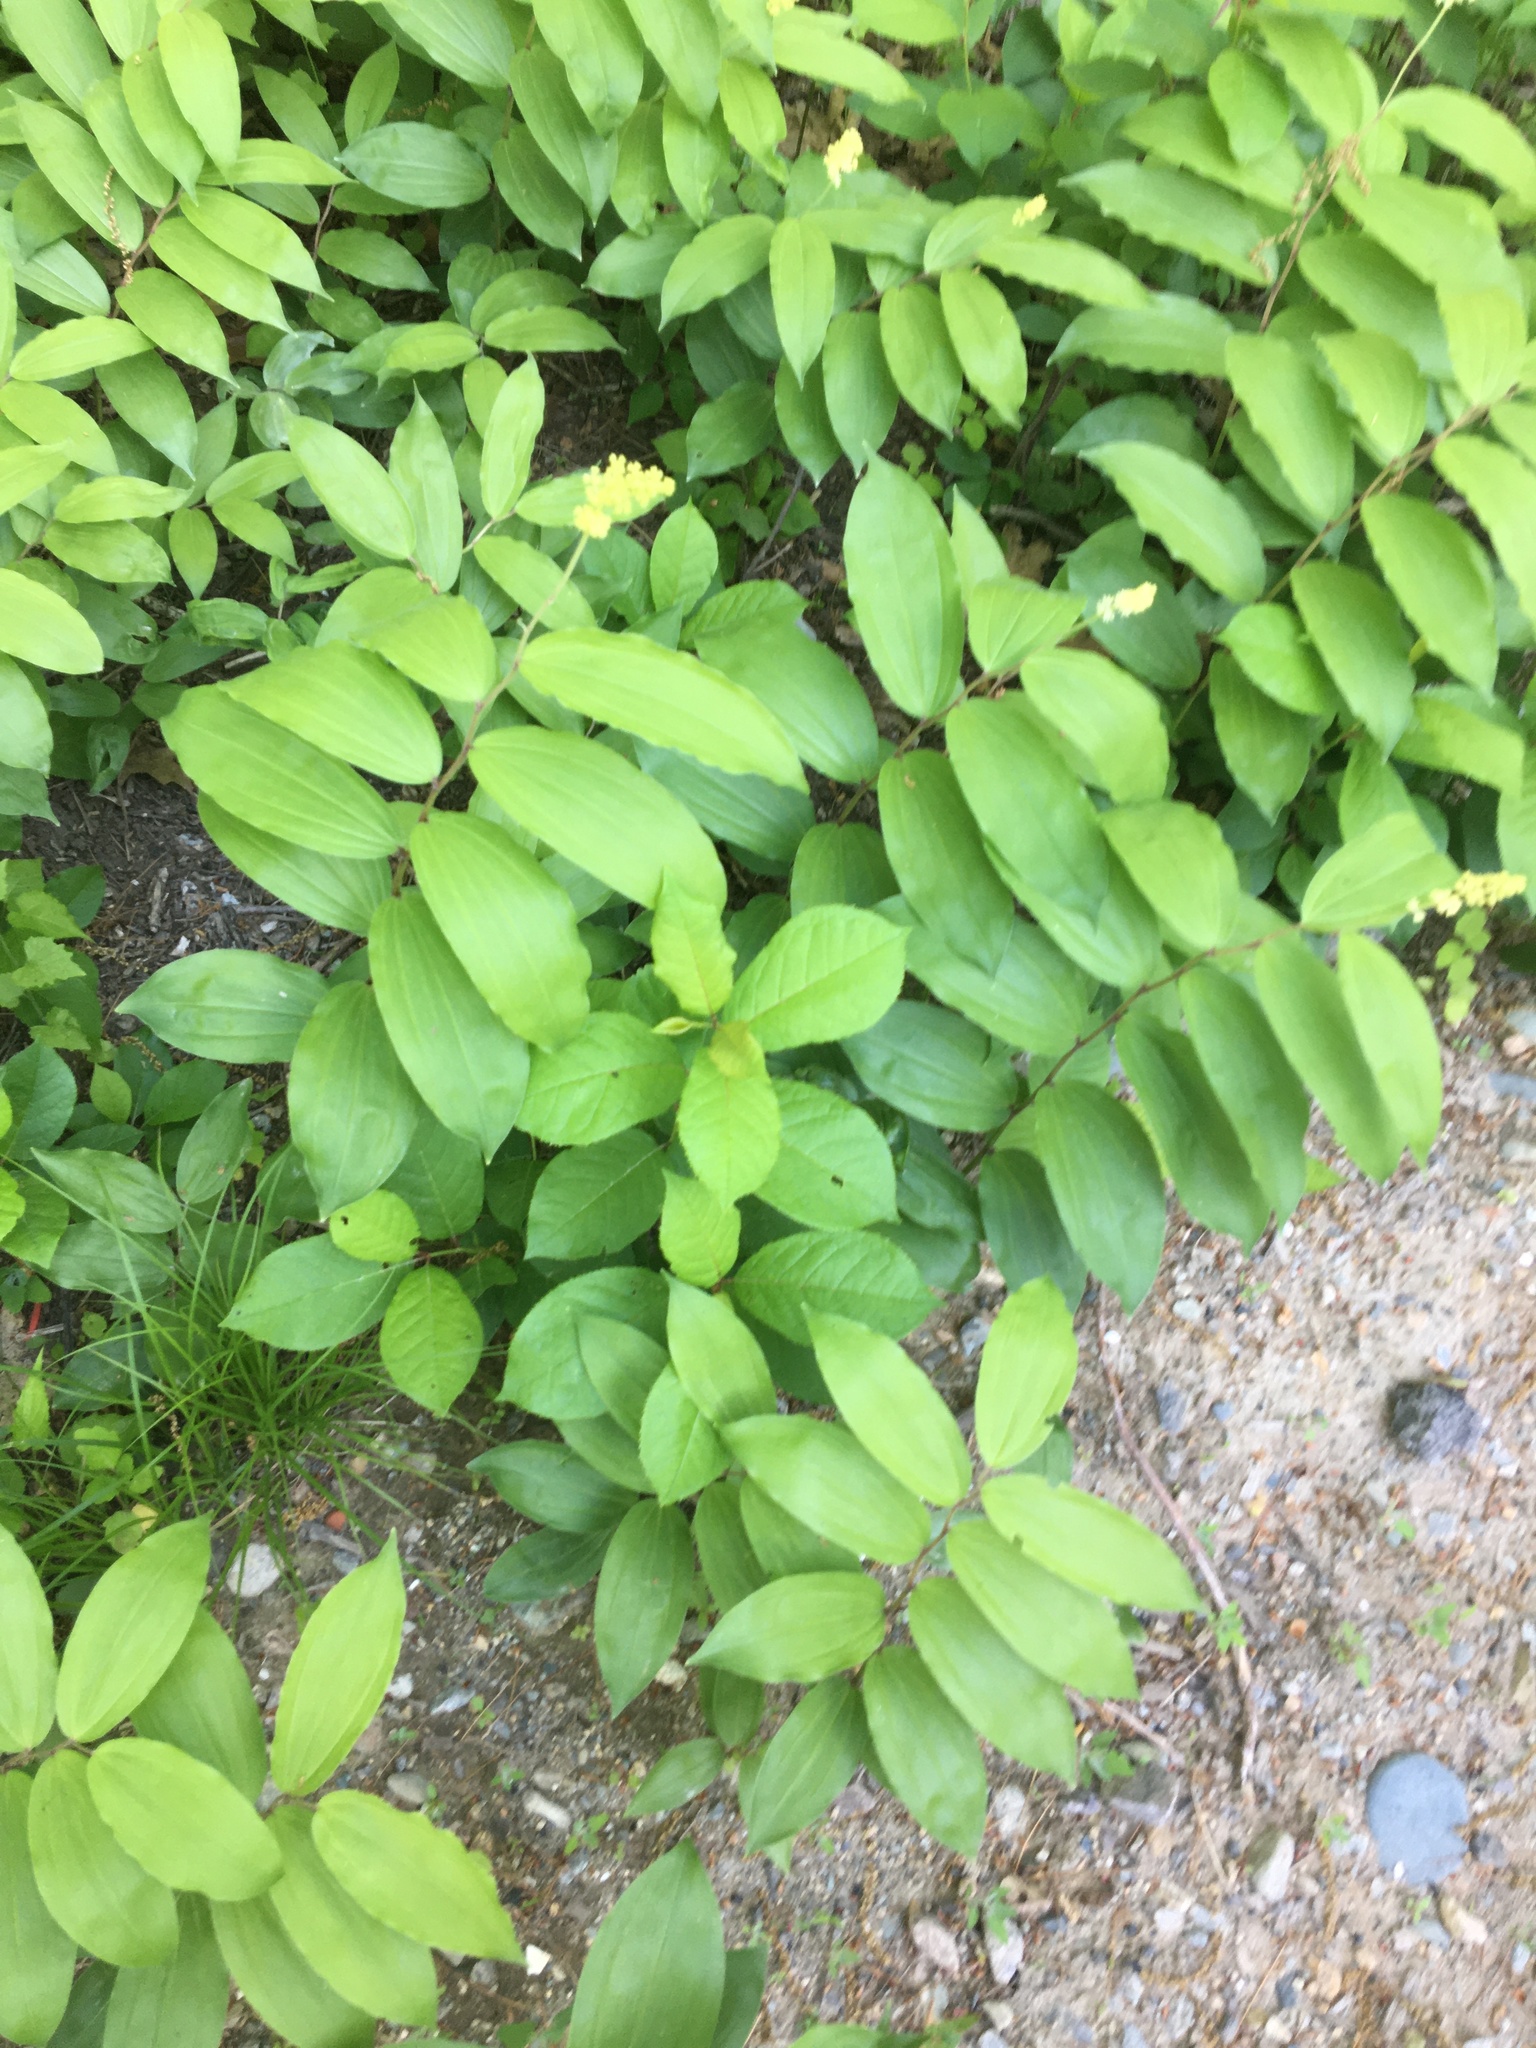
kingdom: Plantae
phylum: Tracheophyta
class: Liliopsida
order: Asparagales
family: Asparagaceae
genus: Maianthemum
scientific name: Maianthemum racemosum
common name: False spikenard
